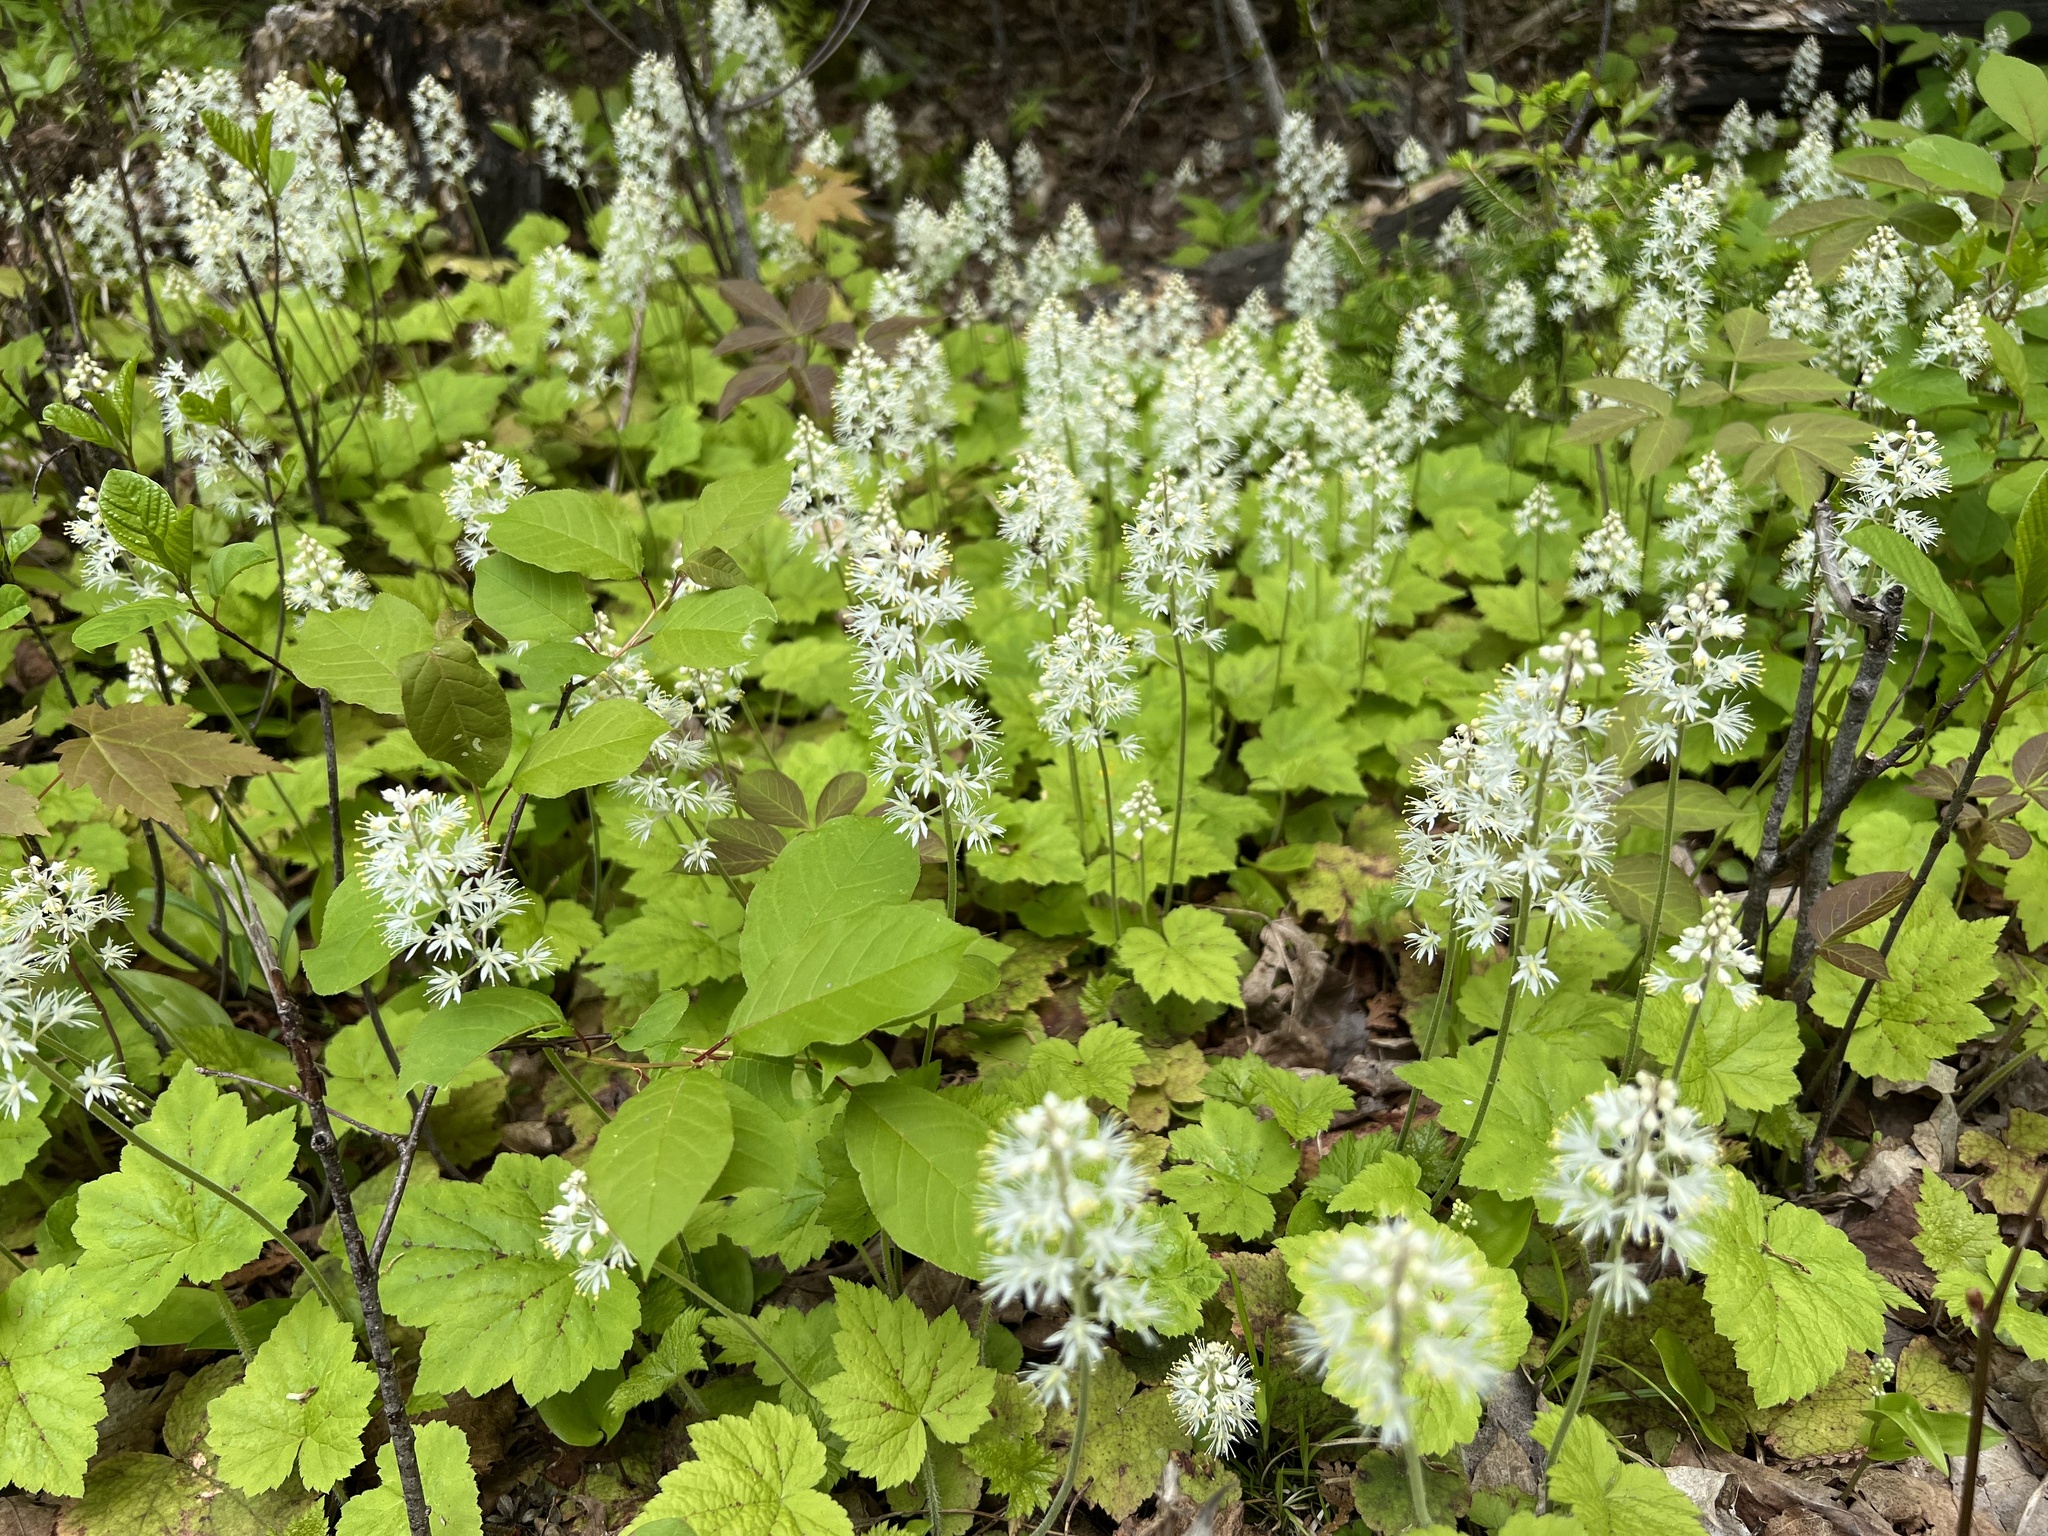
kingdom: Plantae
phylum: Tracheophyta
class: Magnoliopsida
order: Saxifragales
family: Saxifragaceae
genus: Tiarella
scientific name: Tiarella stolonifera
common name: Stoloniferous foamflower
